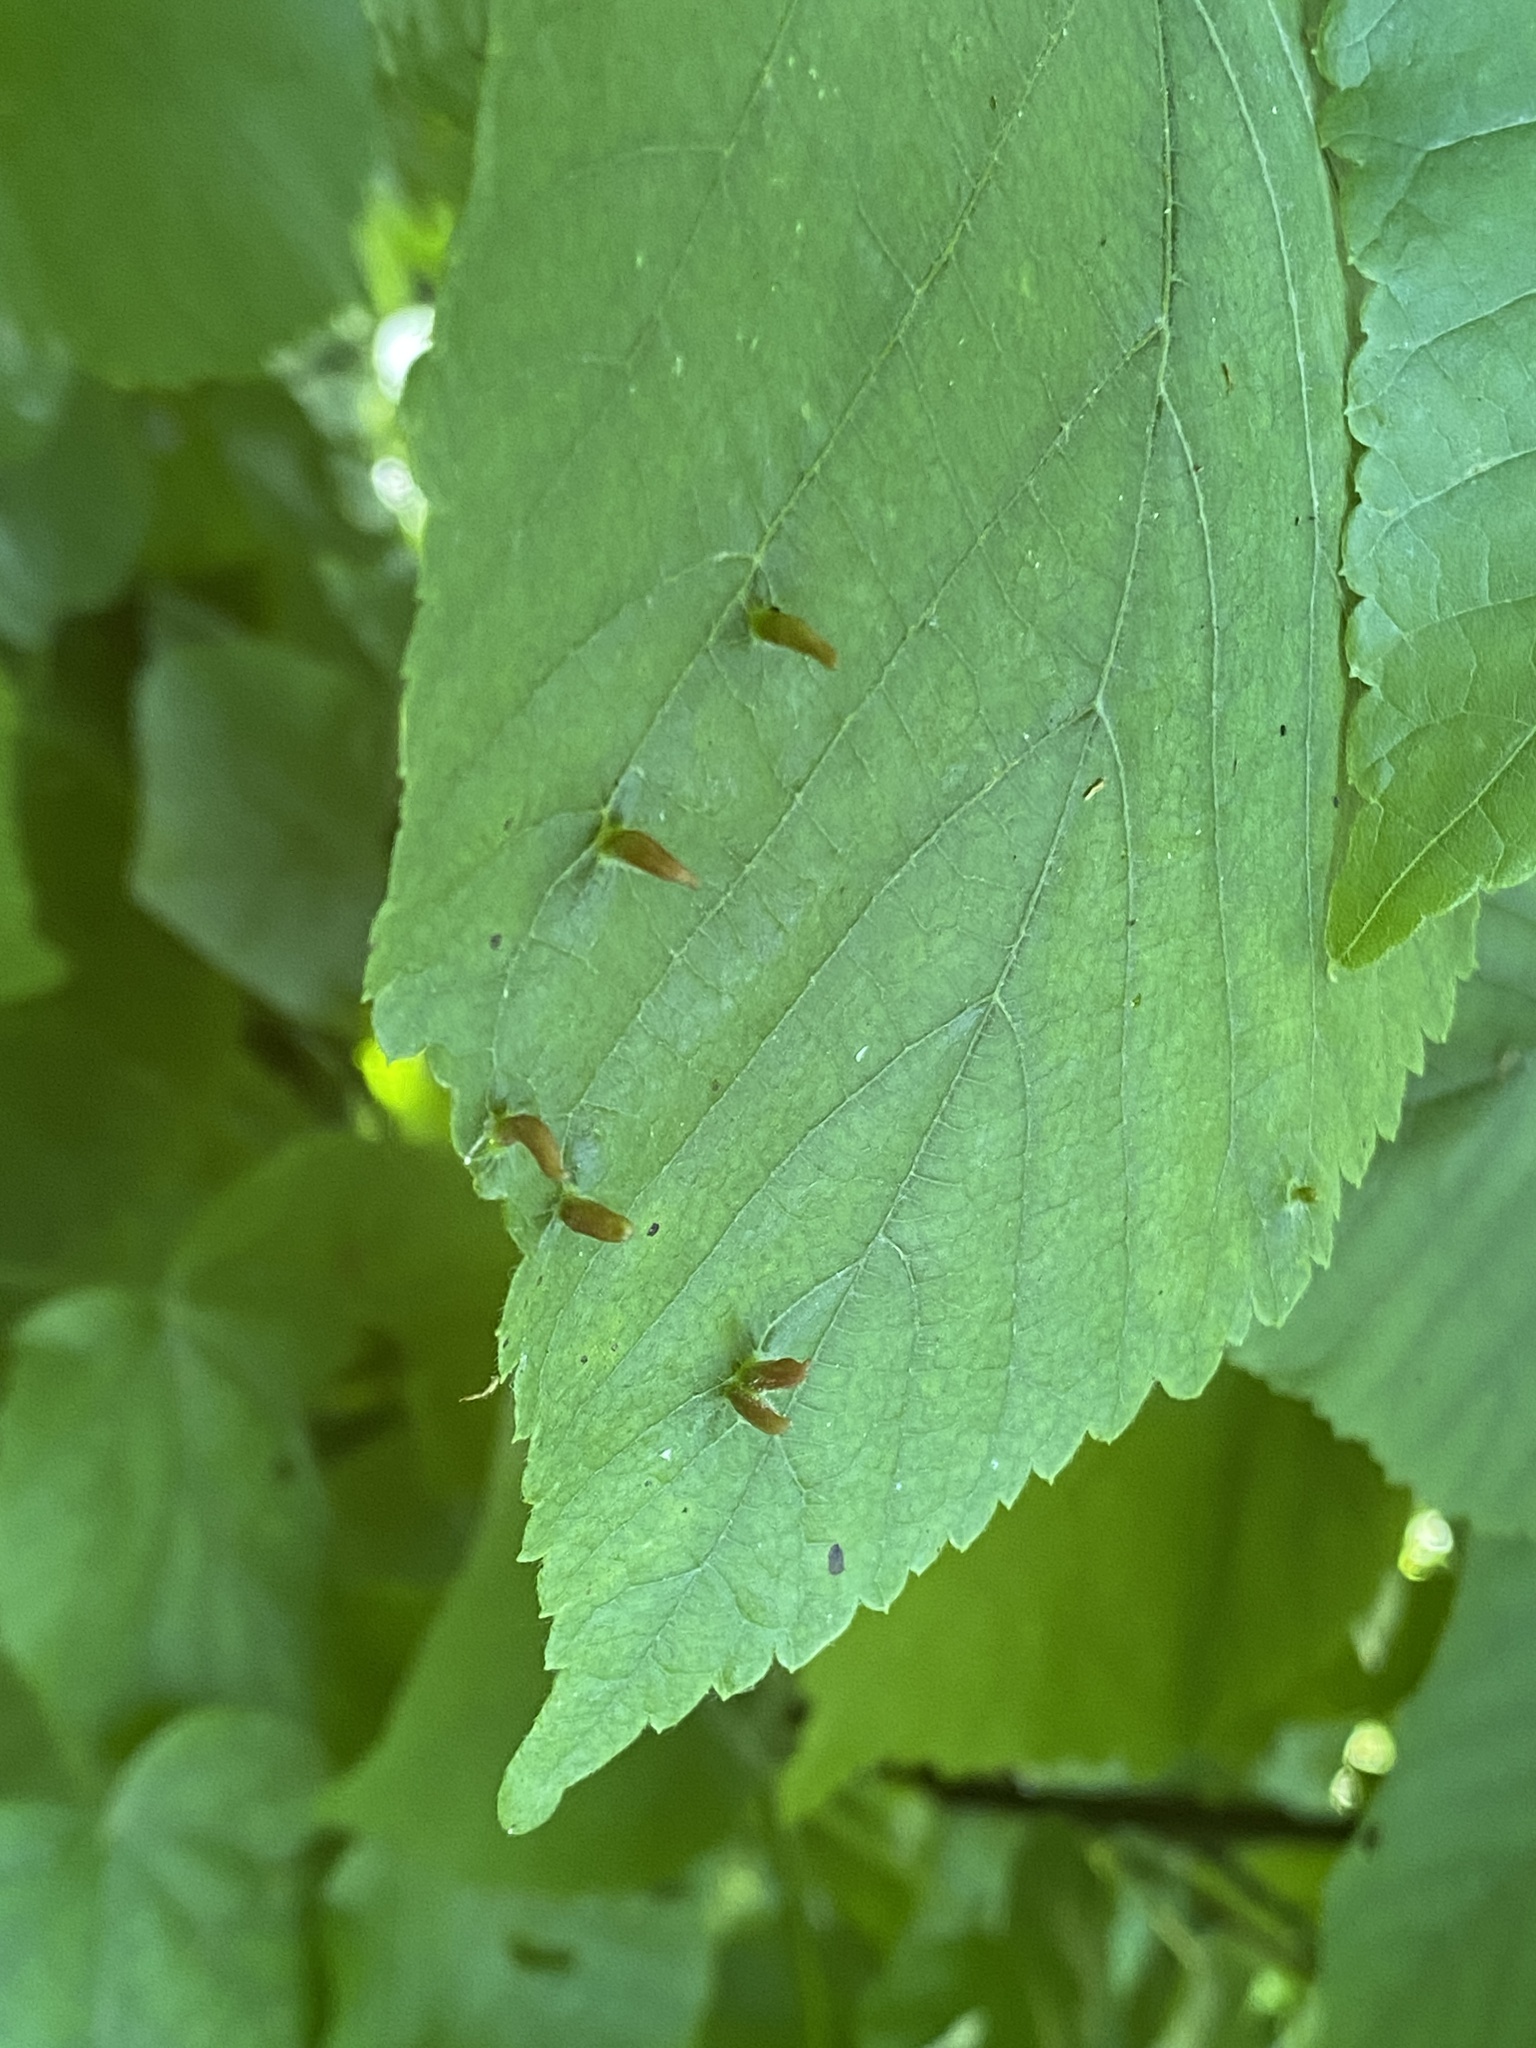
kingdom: Animalia
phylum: Arthropoda
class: Arachnida
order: Trombidiformes
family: Eriophyidae
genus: Eriophyes
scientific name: Eriophyes tiliae
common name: Red nail gall mite
